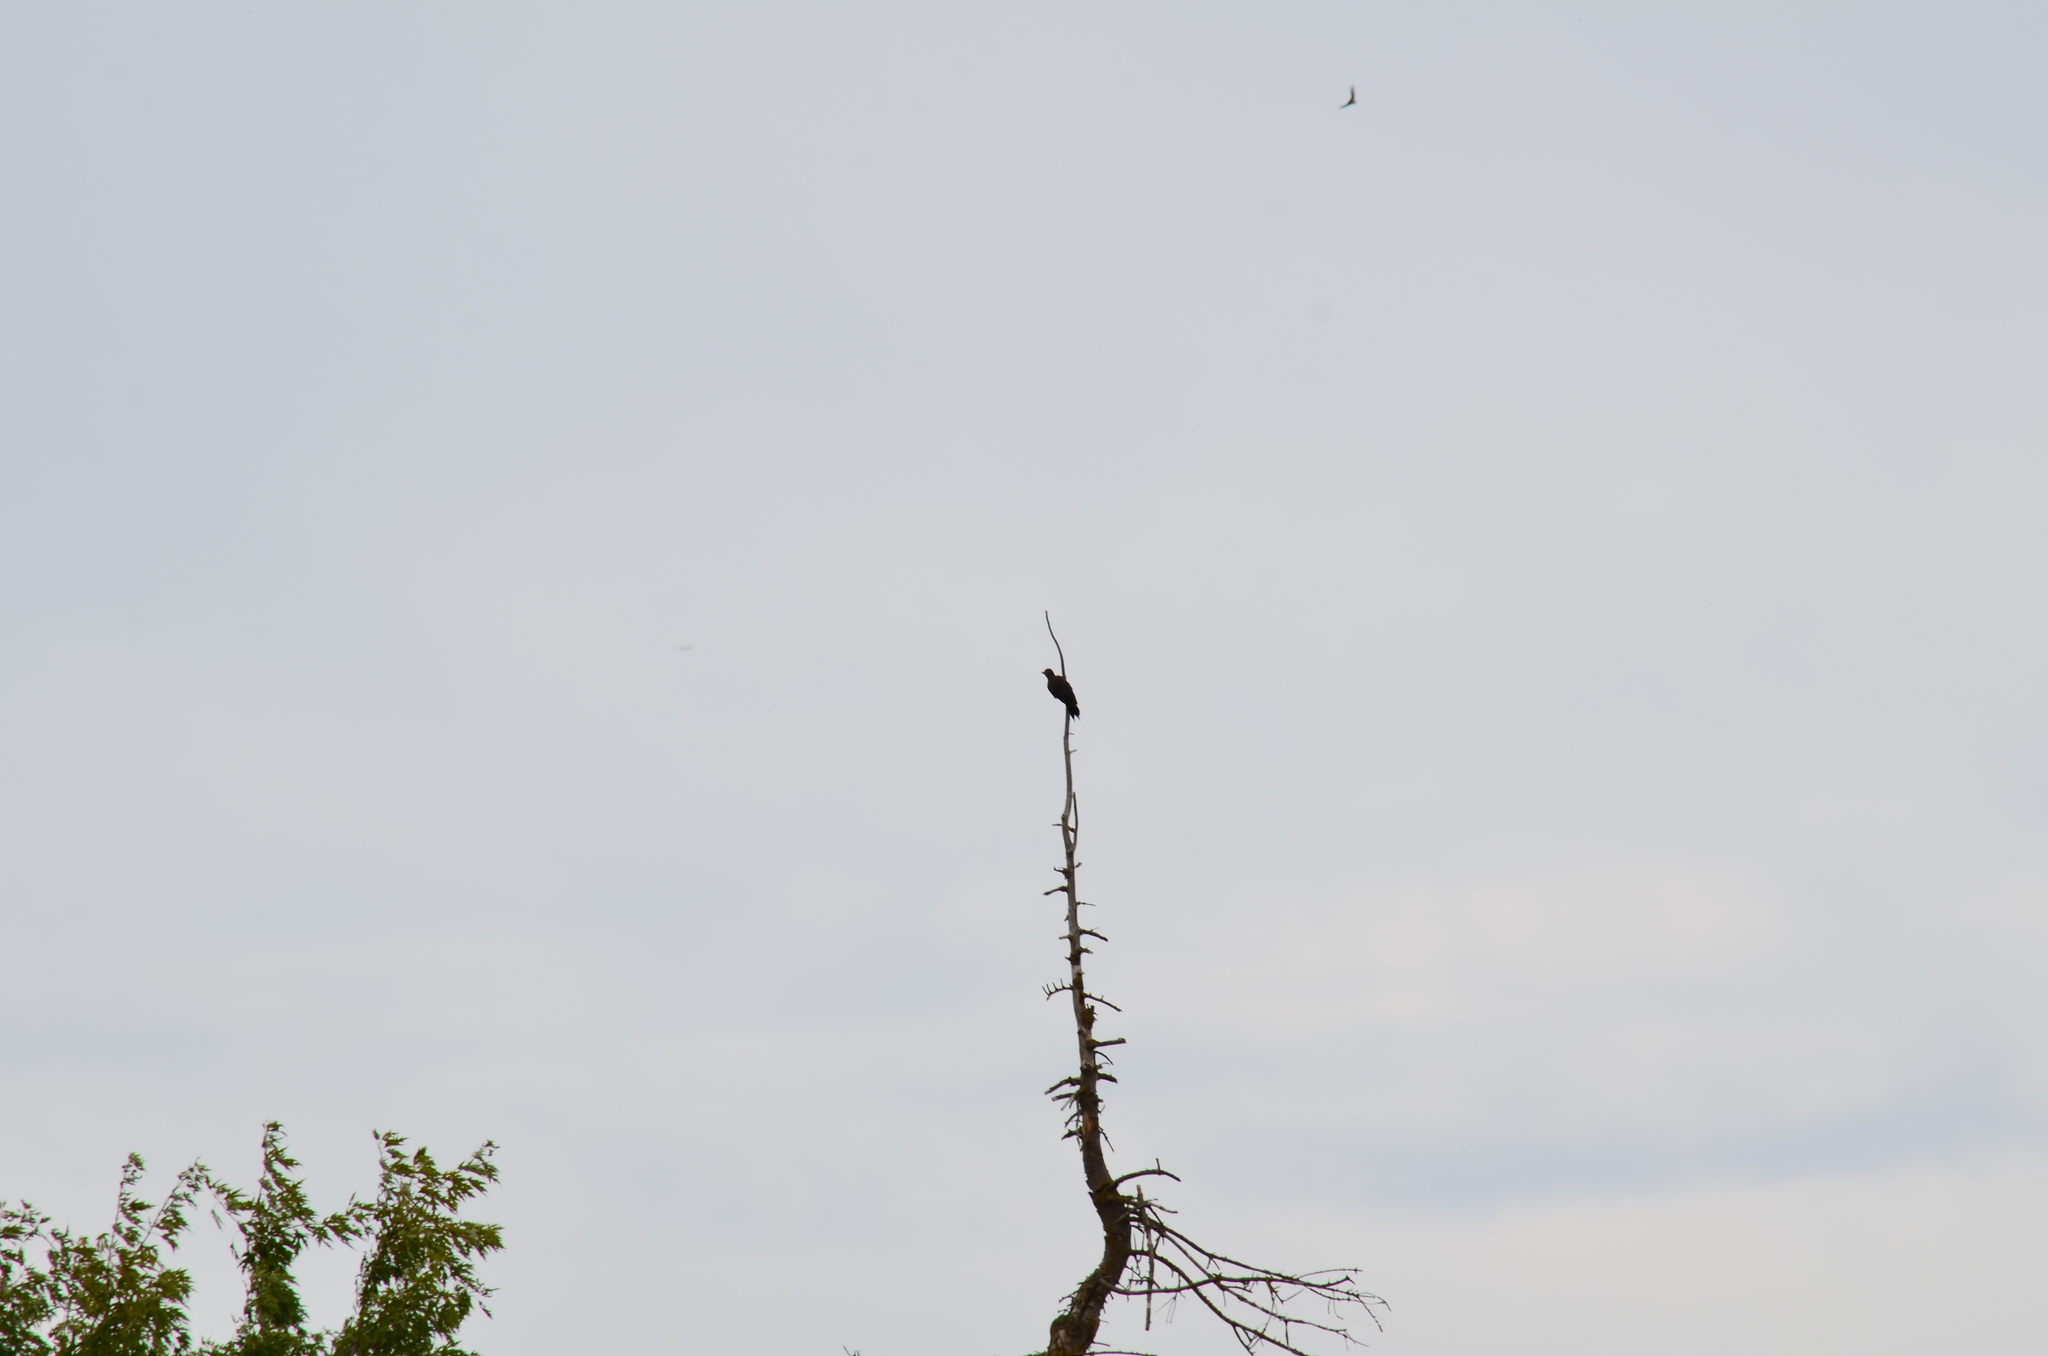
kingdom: Animalia
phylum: Chordata
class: Aves
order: Piciformes
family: Picidae
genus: Colaptes
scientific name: Colaptes auratus
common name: Northern flicker
